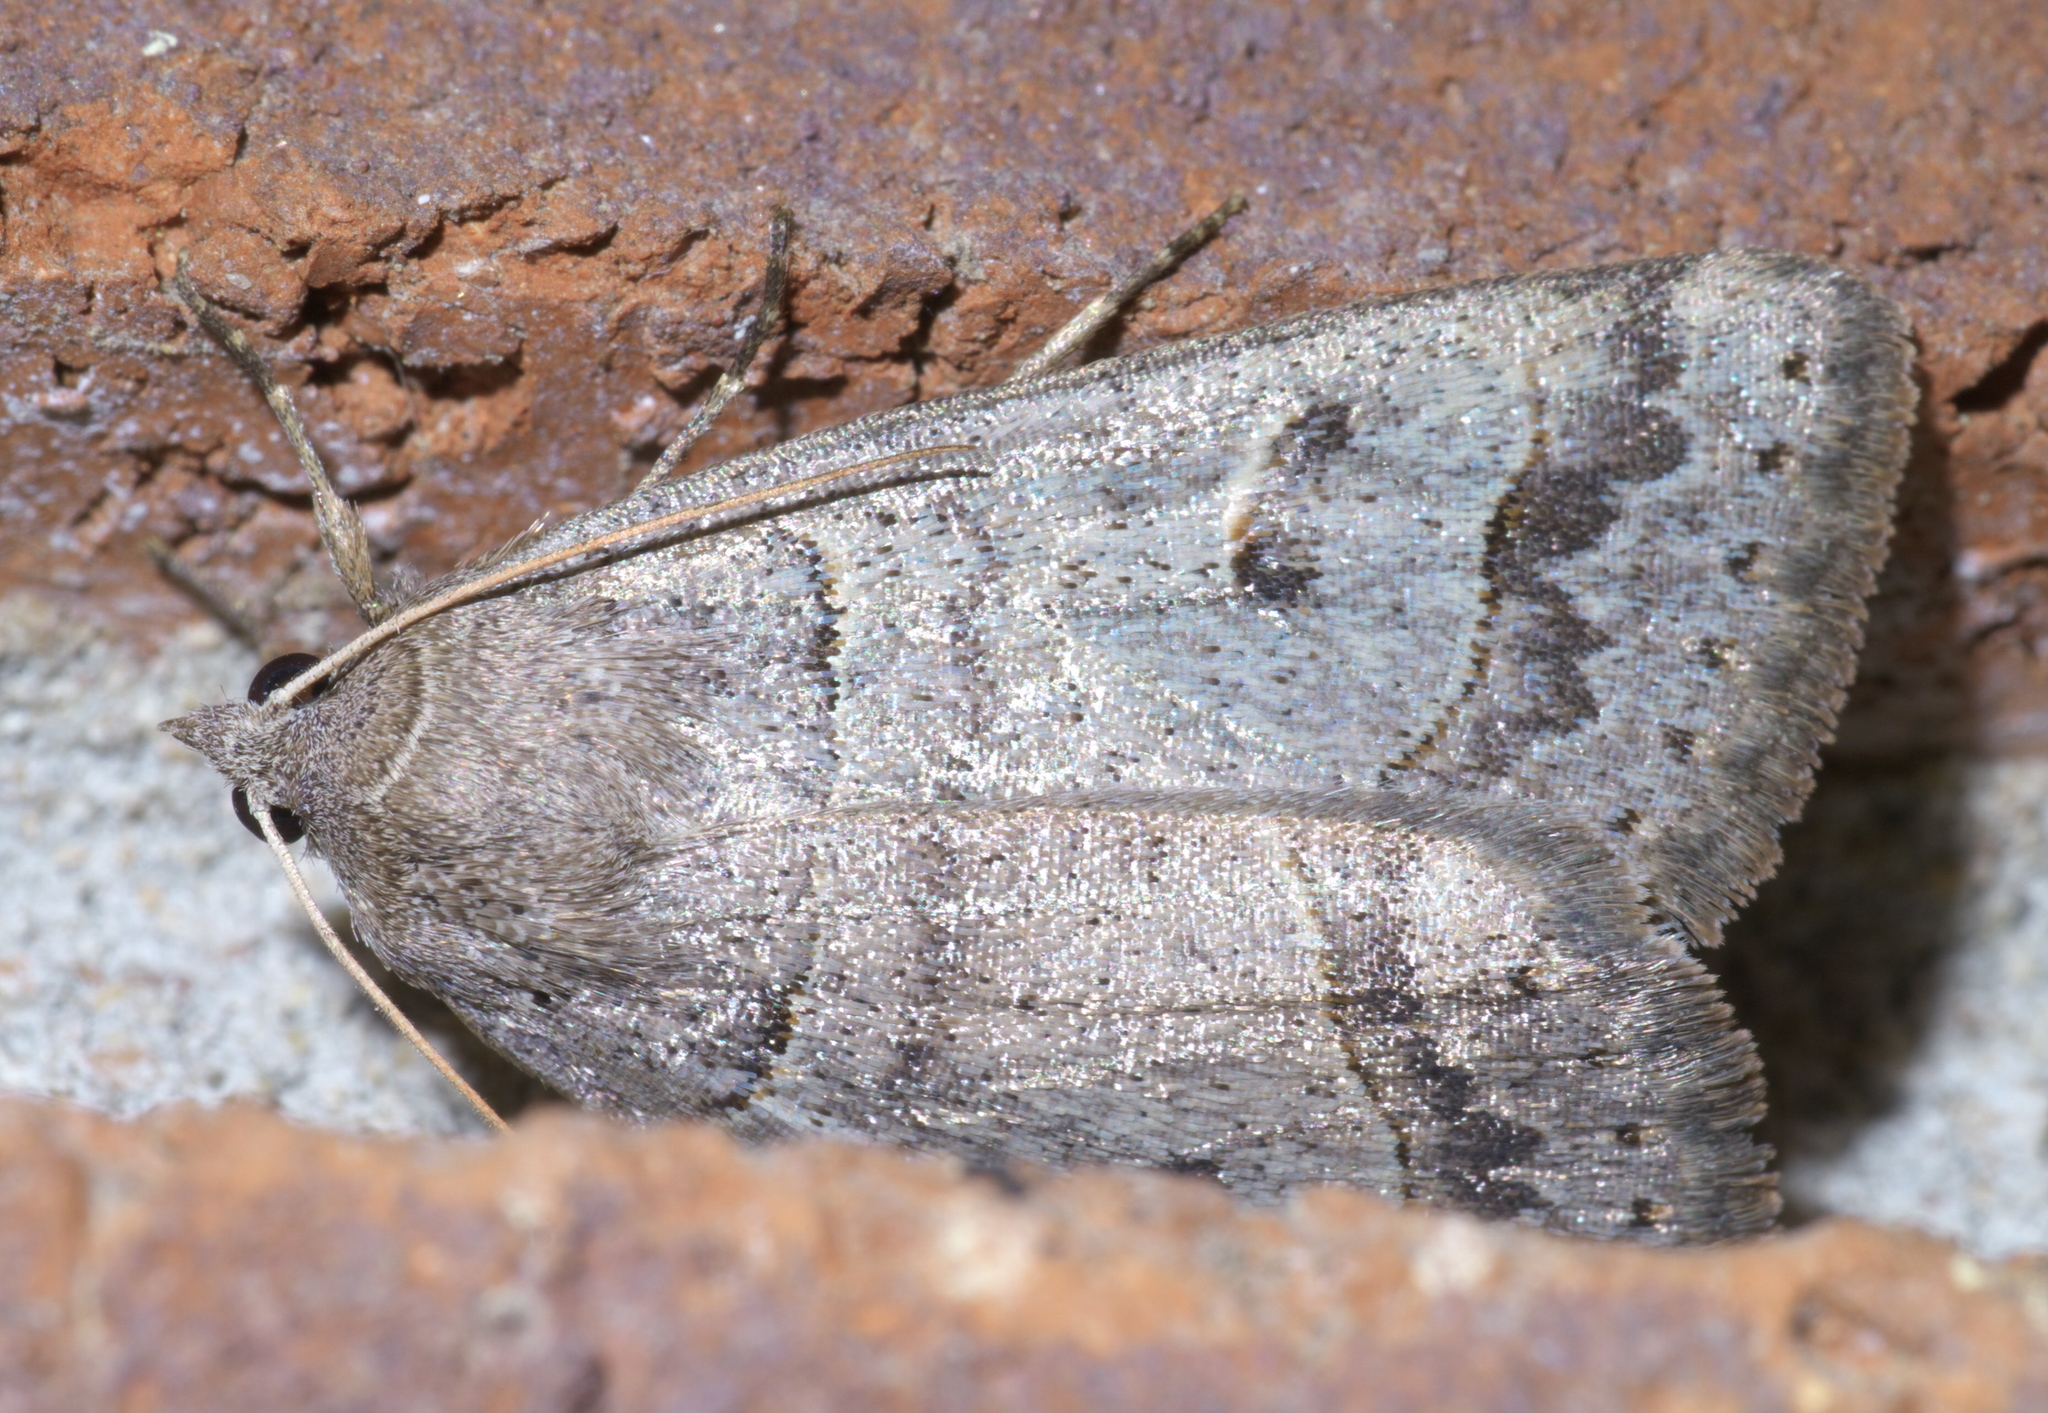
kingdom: Animalia
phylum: Arthropoda
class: Insecta
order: Lepidoptera
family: Erebidae
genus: Phoberia
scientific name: Phoberia atomaris
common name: Common oak moth
